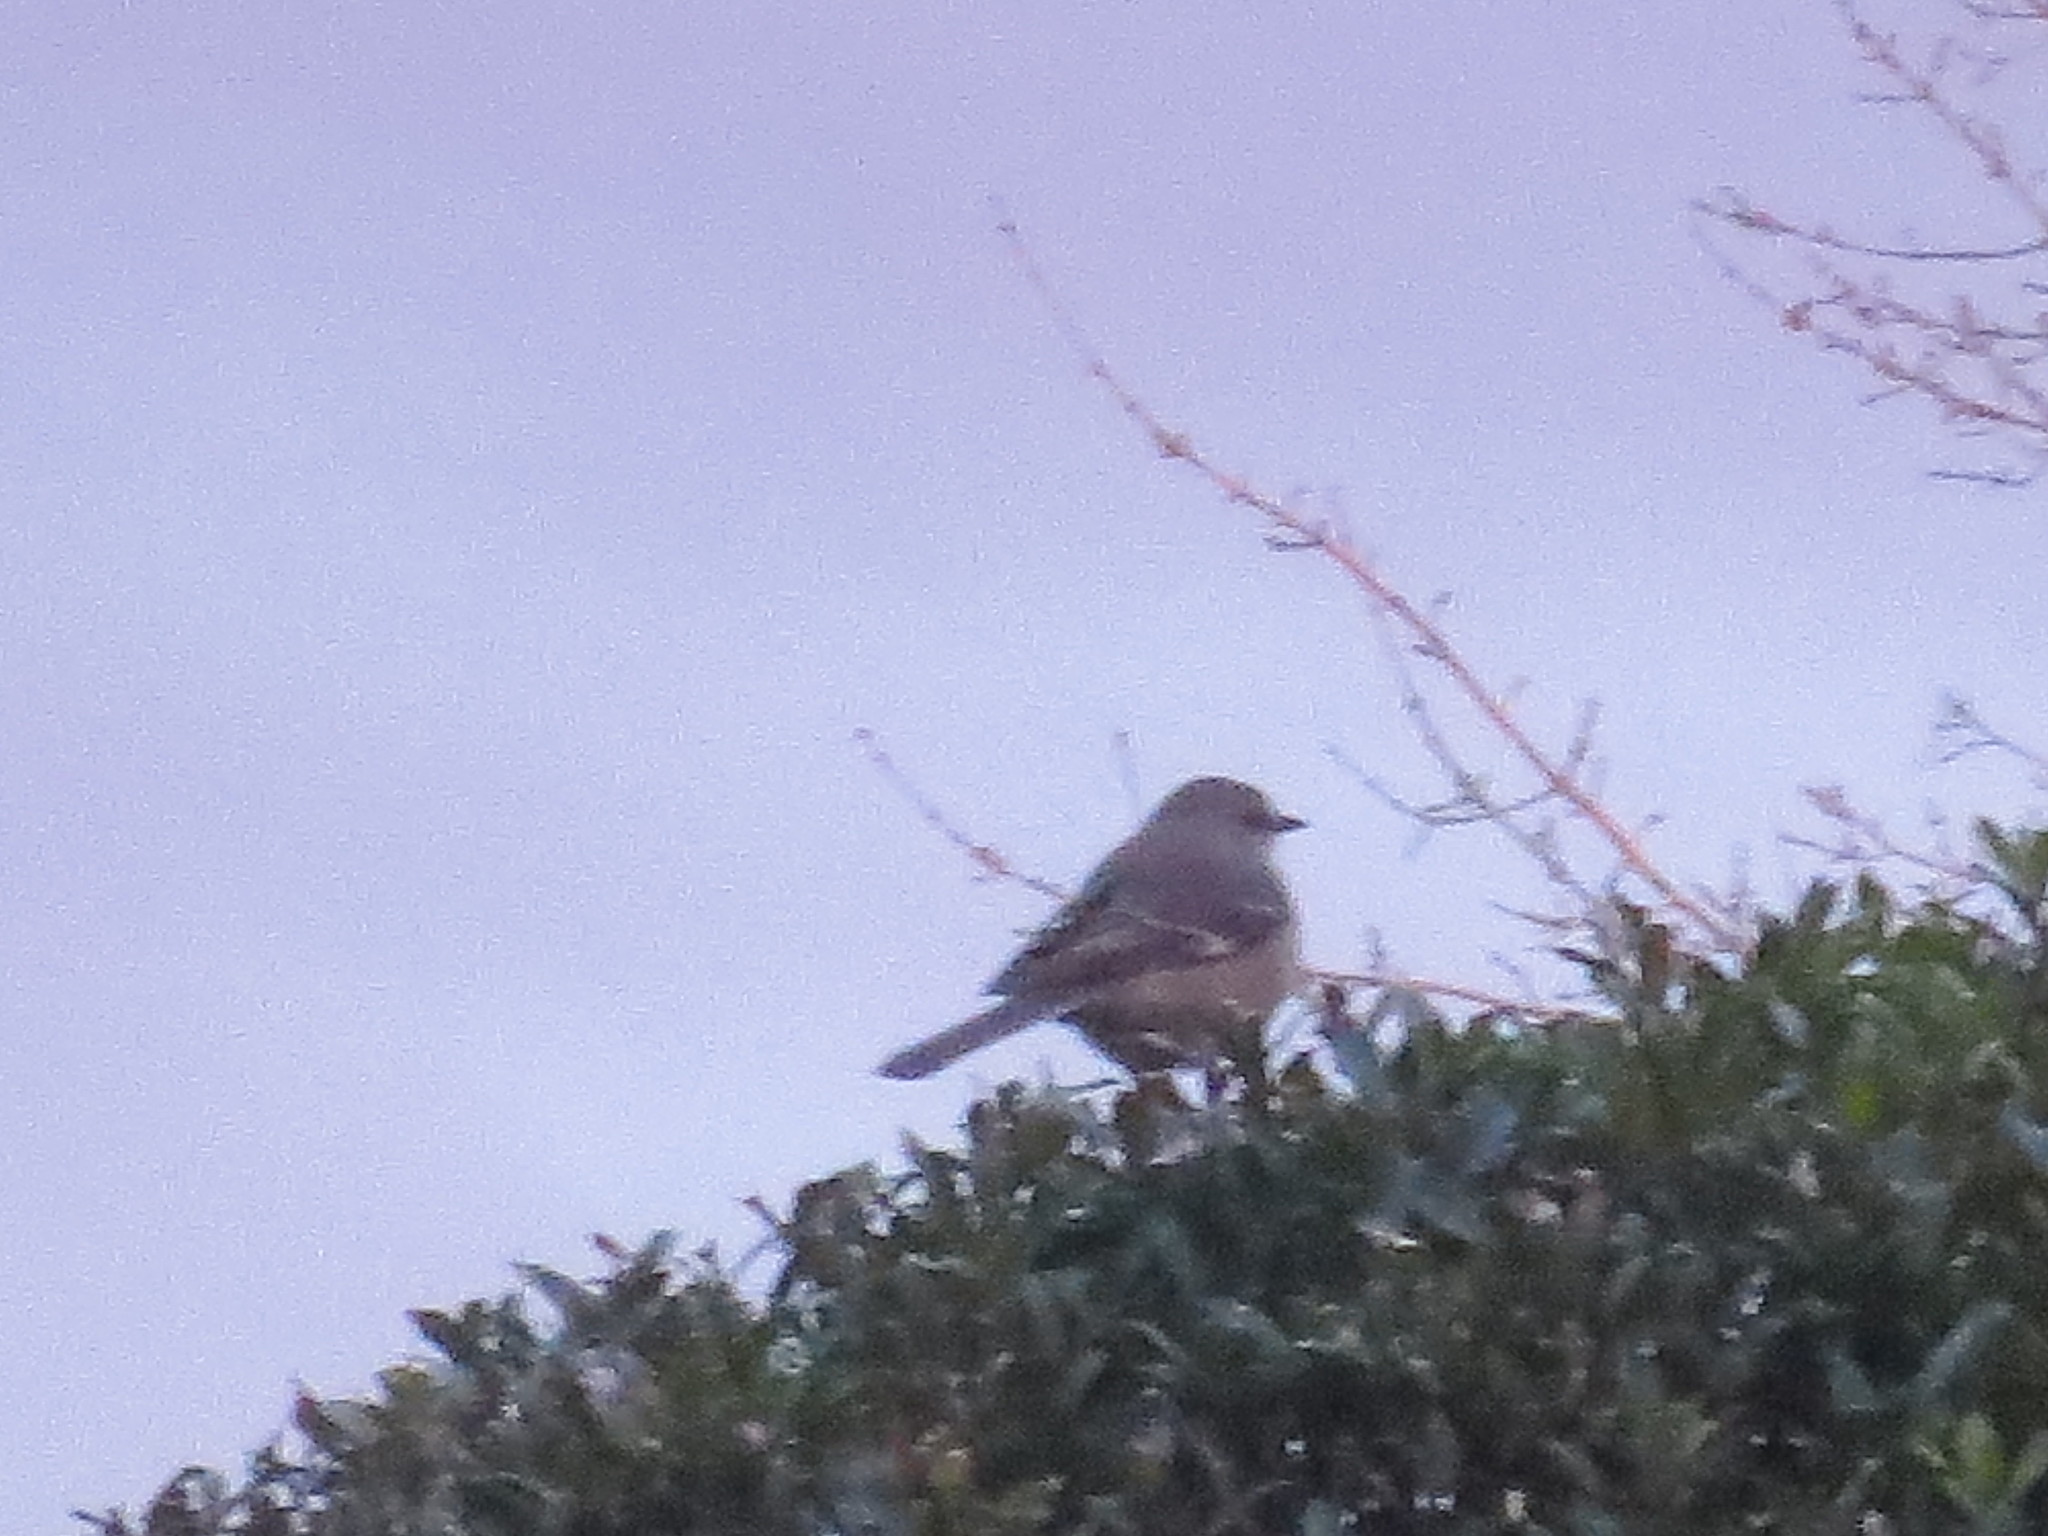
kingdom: Animalia
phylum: Chordata
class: Aves
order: Passeriformes
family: Mimidae
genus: Mimus
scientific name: Mimus polyglottos
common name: Northern mockingbird
